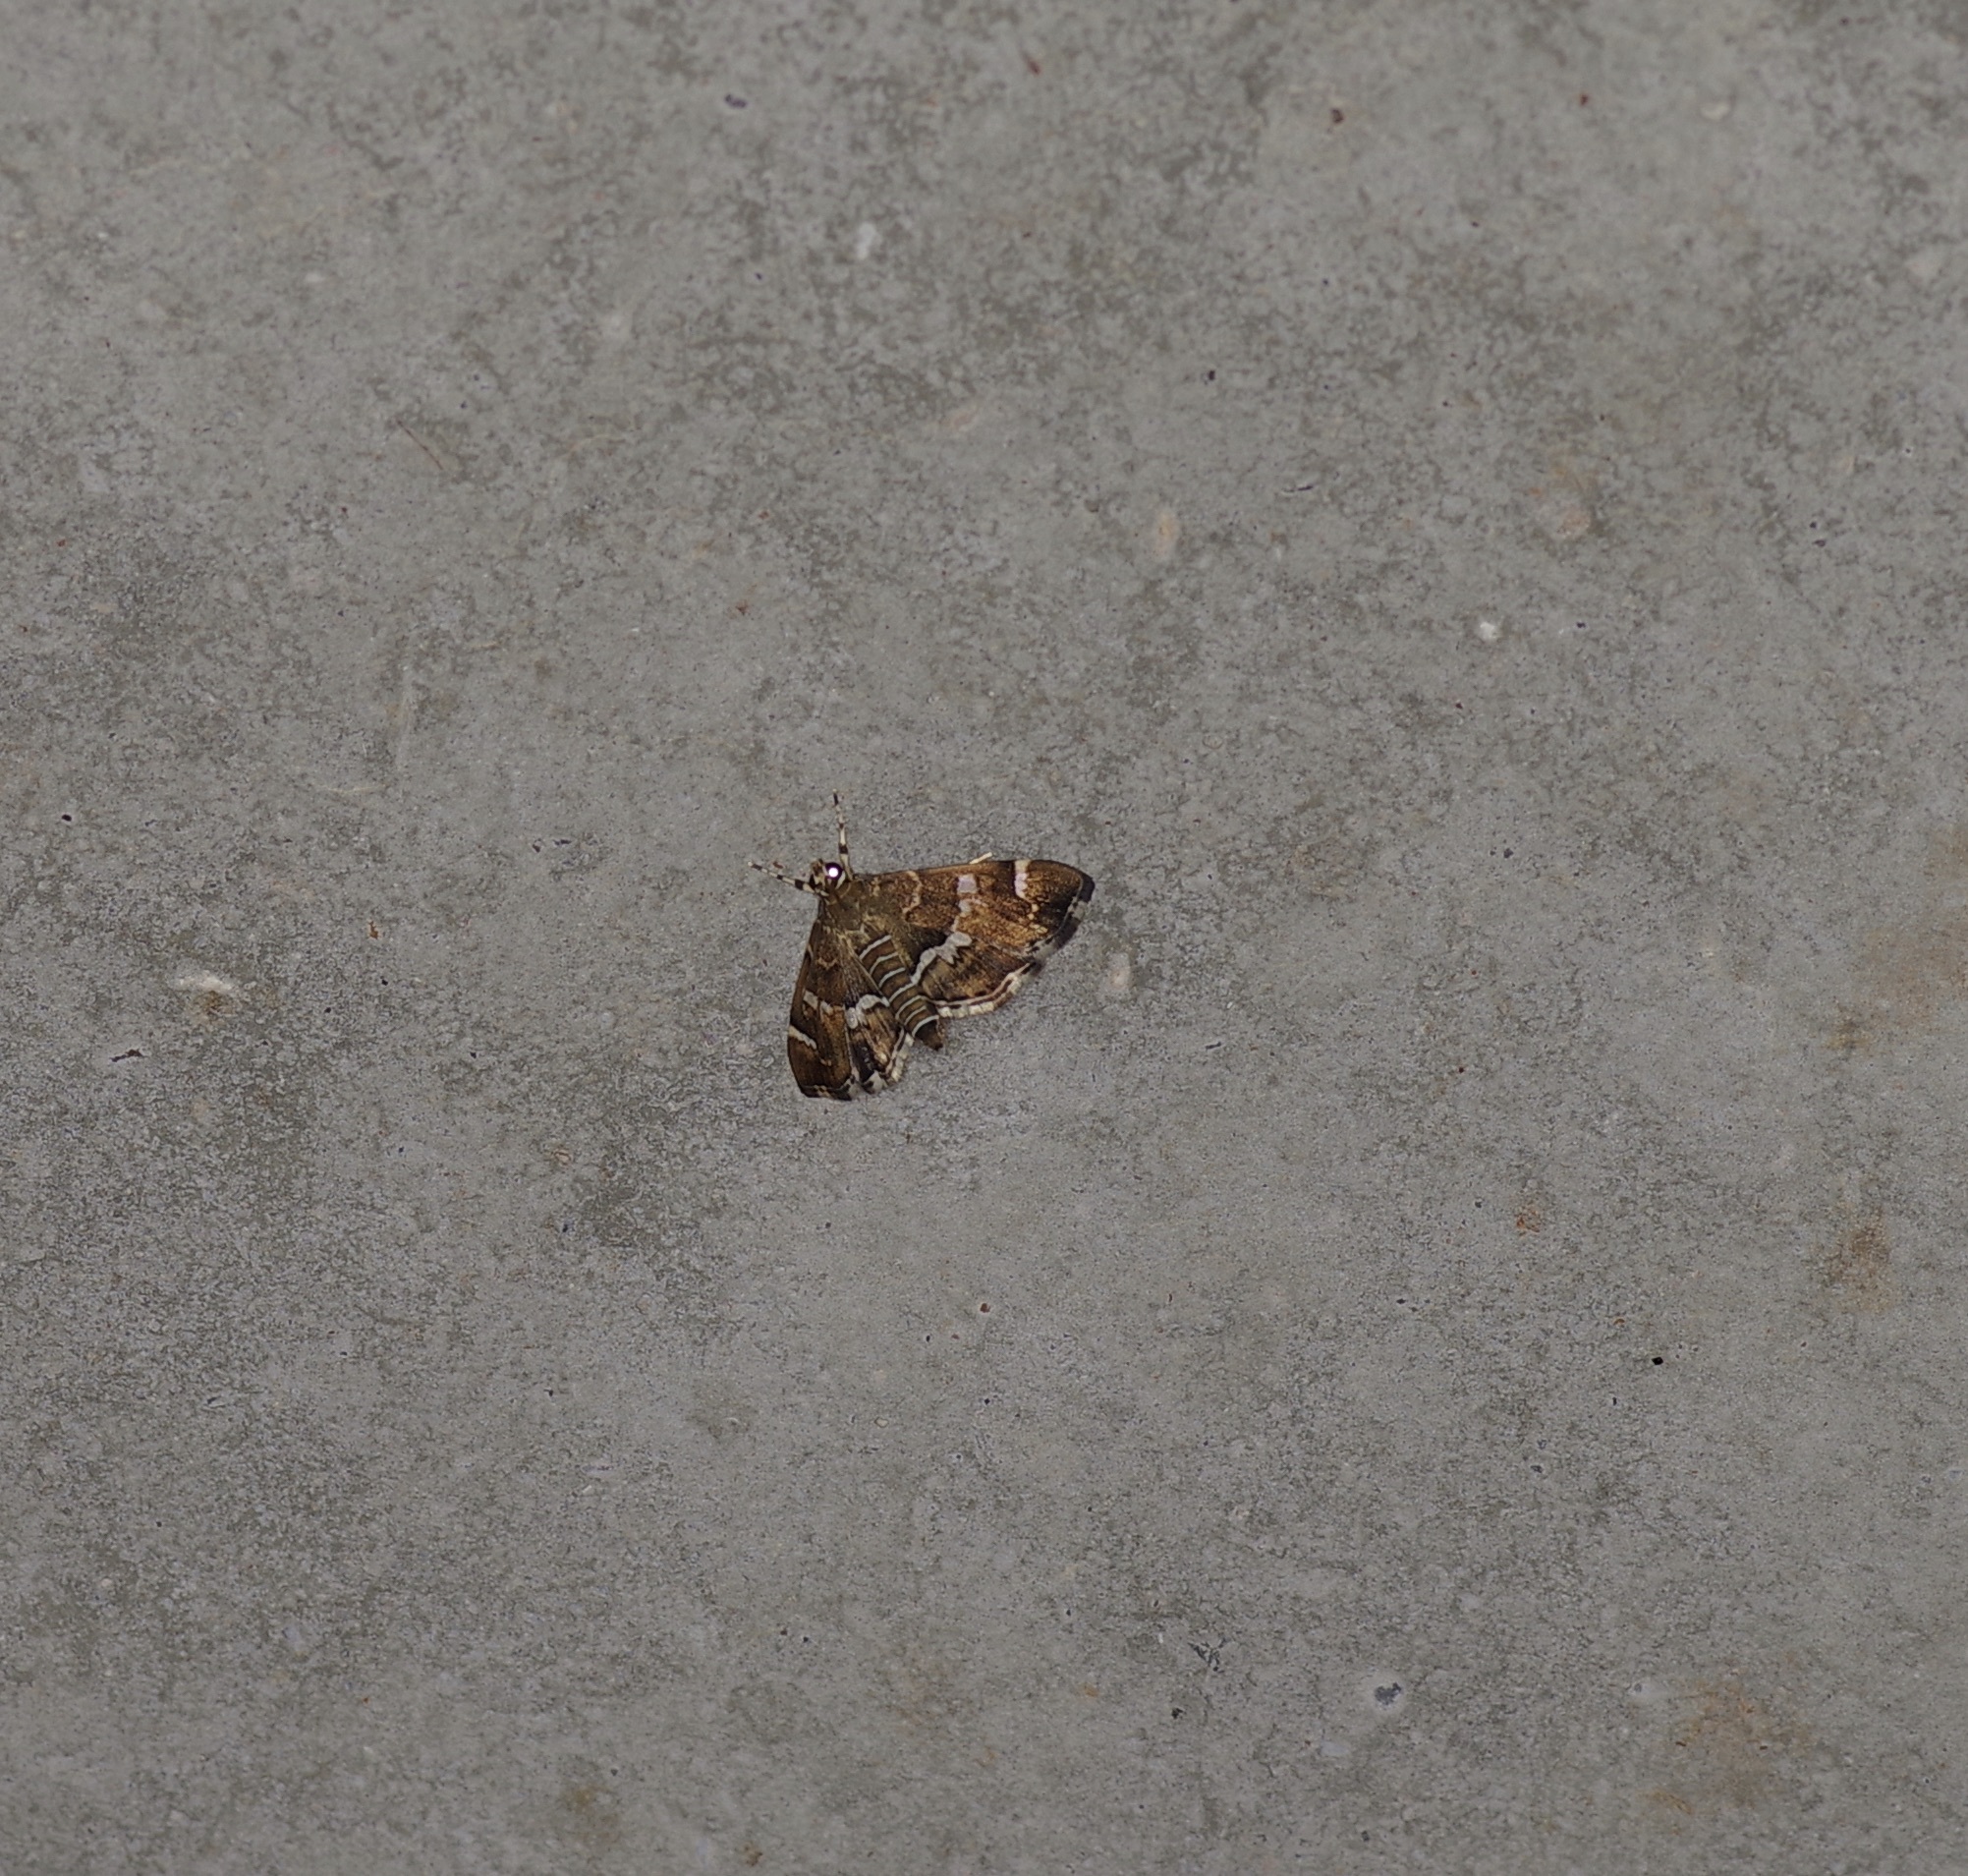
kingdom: Animalia
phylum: Arthropoda
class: Insecta
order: Lepidoptera
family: Crambidae
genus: Hymenia
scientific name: Hymenia perspectalis
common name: Spotted beet webworm
